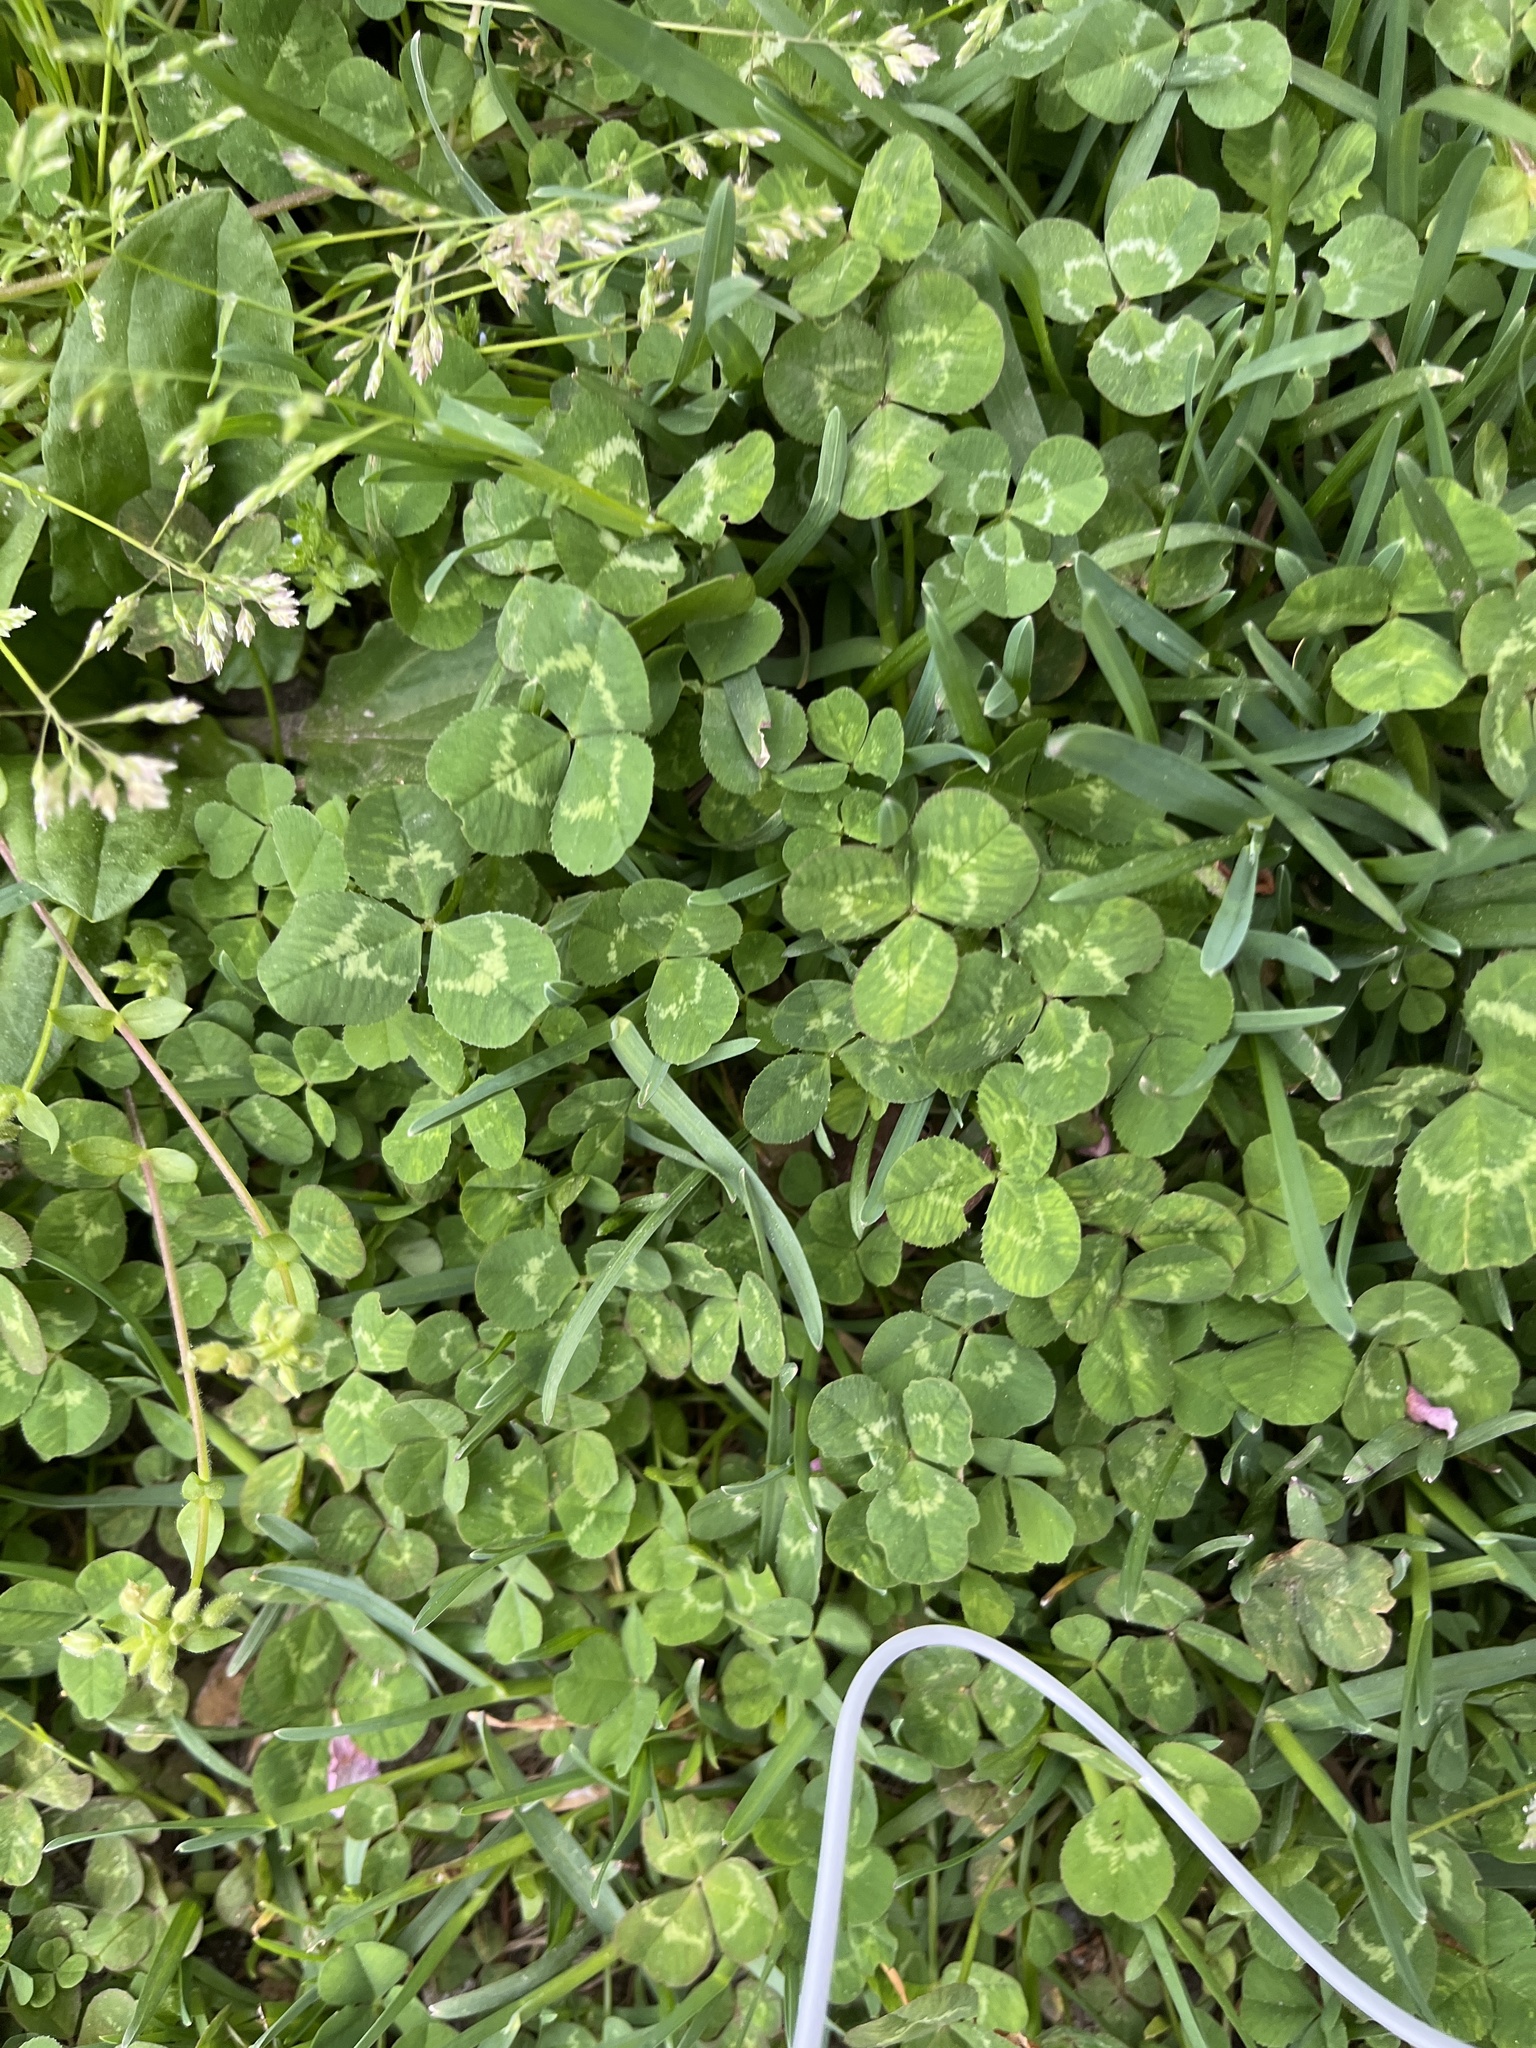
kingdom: Plantae
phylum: Tracheophyta
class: Magnoliopsida
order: Fabales
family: Fabaceae
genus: Trifolium
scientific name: Trifolium repens
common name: White clover
